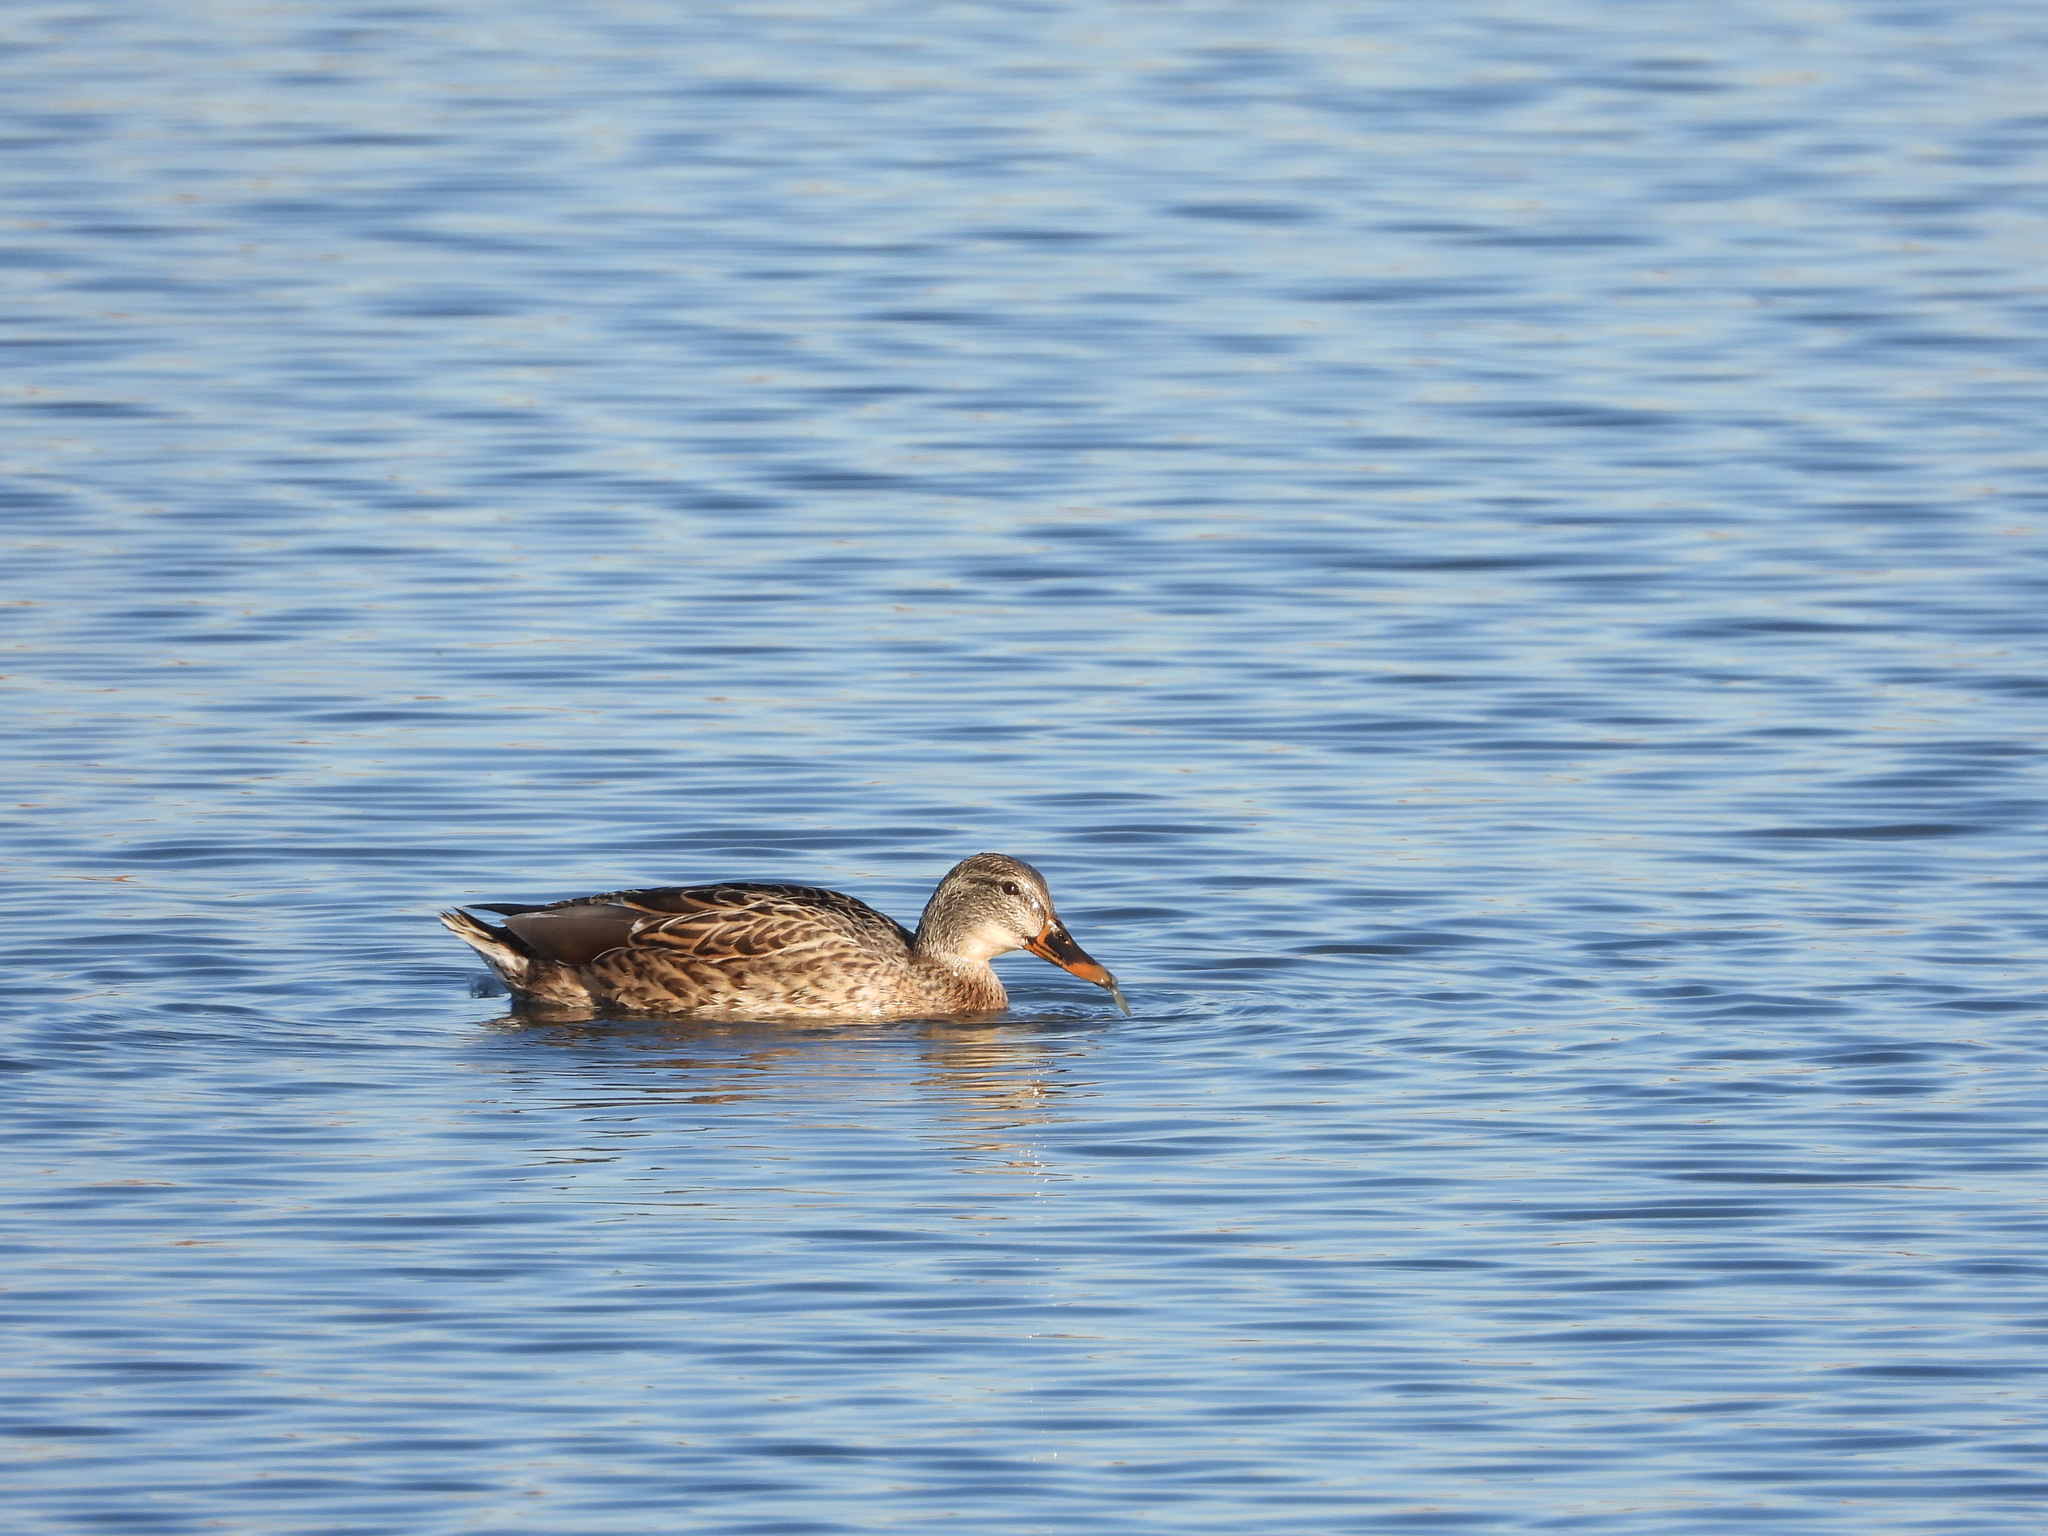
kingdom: Animalia
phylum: Chordata
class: Aves
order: Anseriformes
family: Anatidae
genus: Anas
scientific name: Anas platyrhynchos
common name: Mallard
